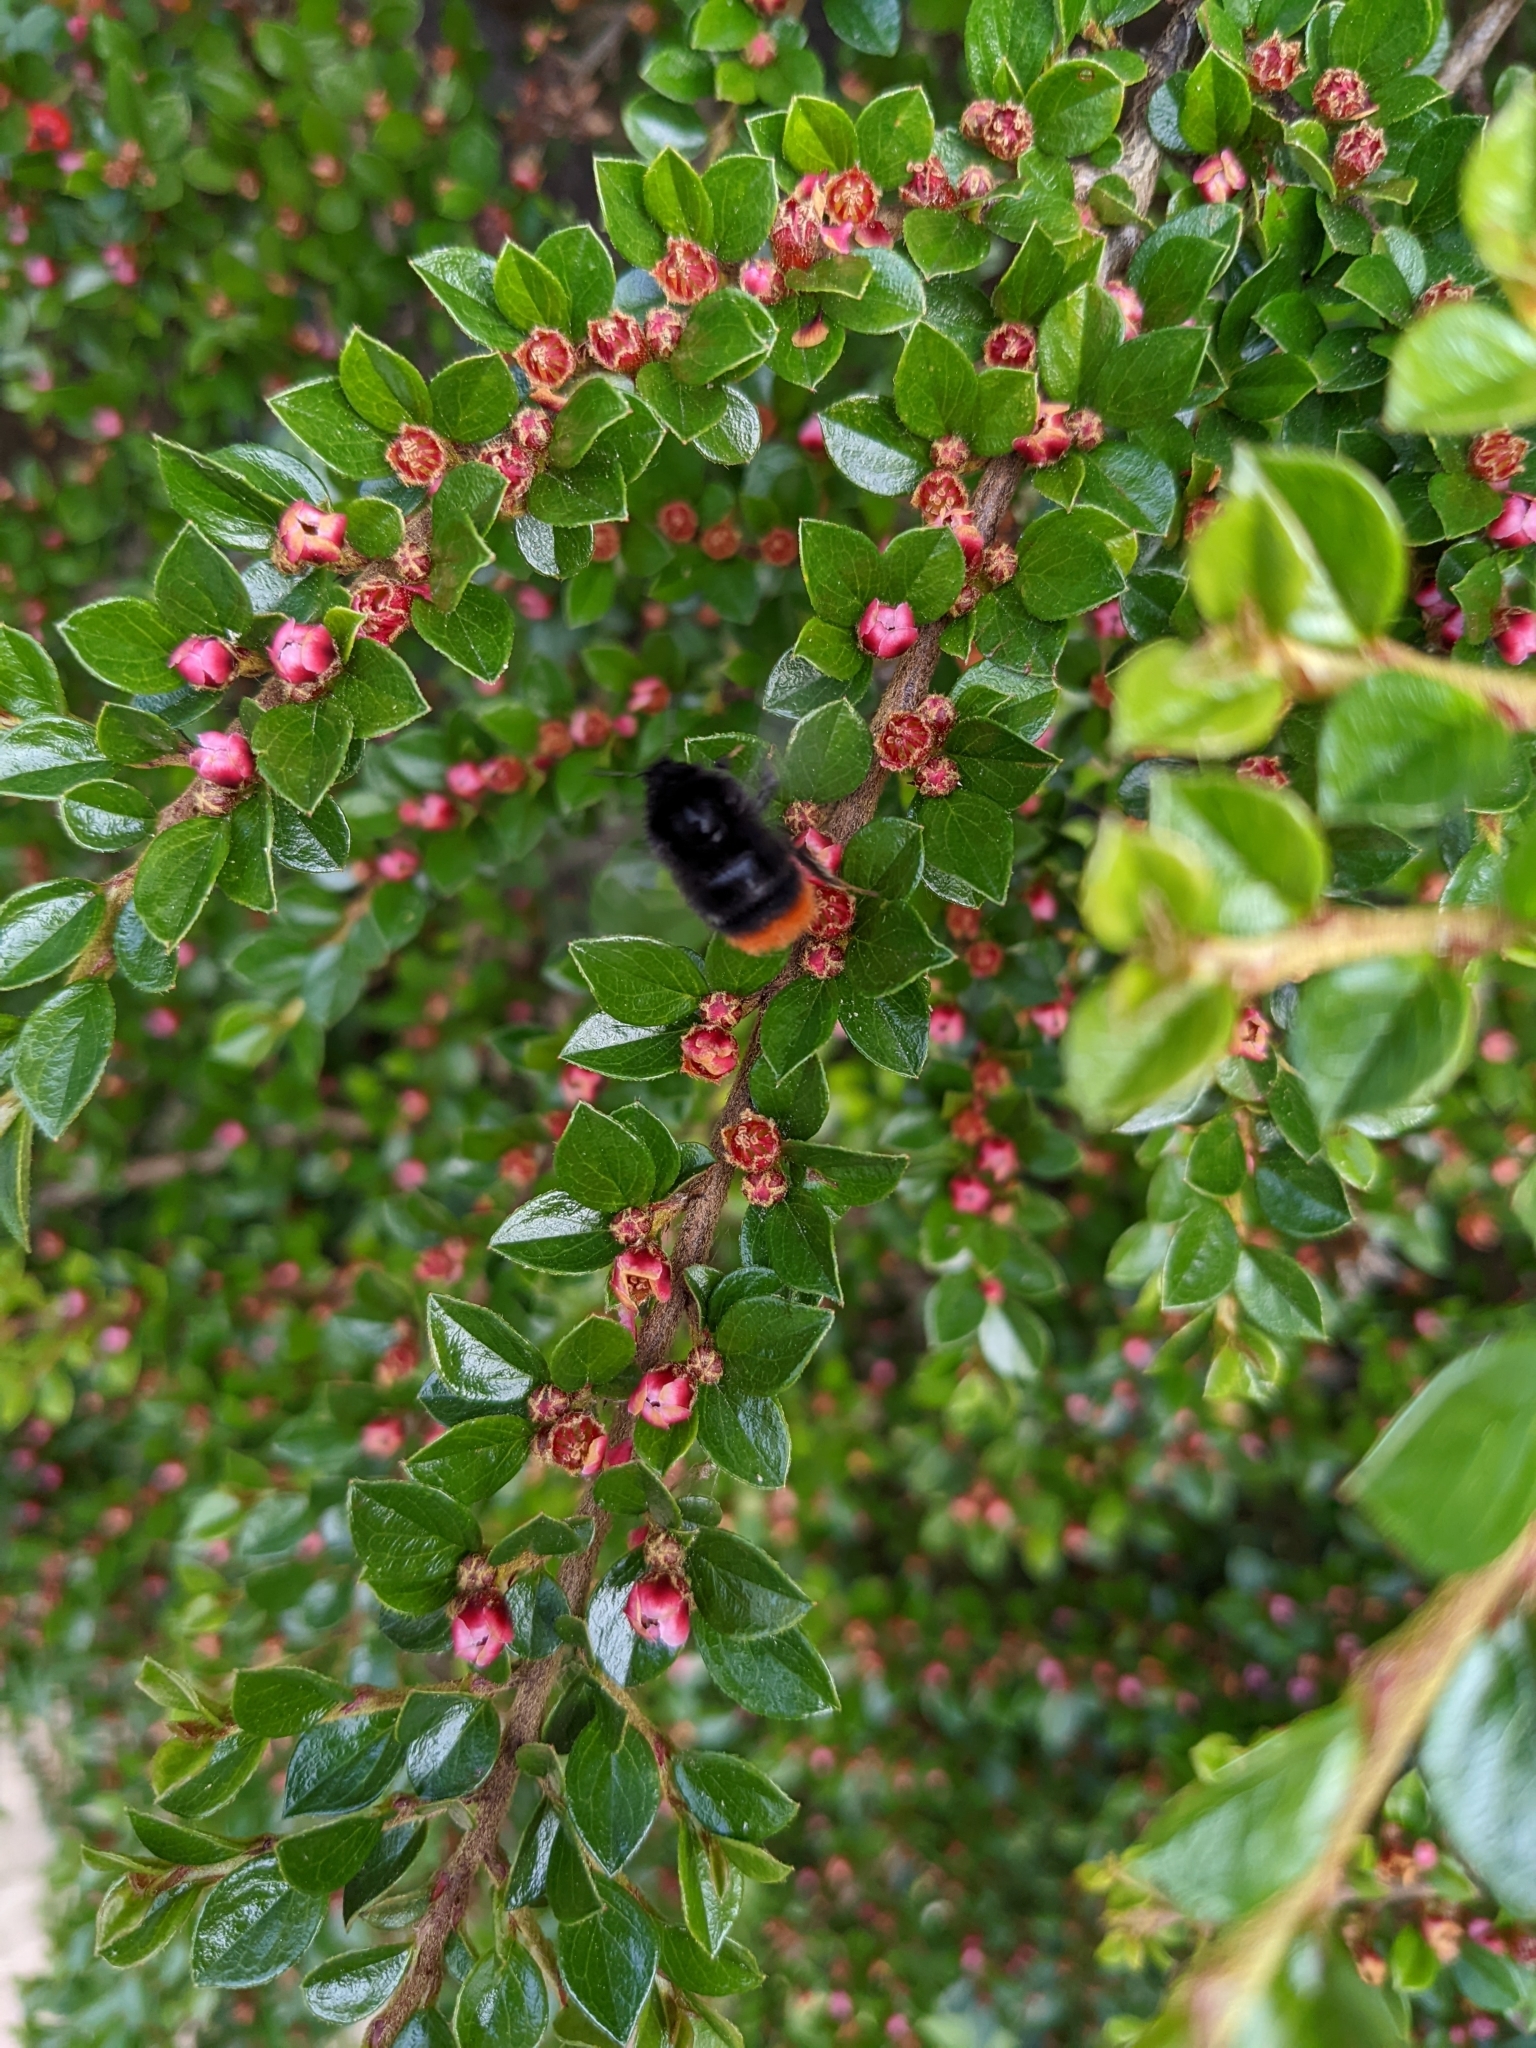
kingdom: Animalia
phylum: Arthropoda
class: Insecta
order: Hymenoptera
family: Apidae
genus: Bombus
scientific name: Bombus lapidarius
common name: Large red-tailed humble-bee
